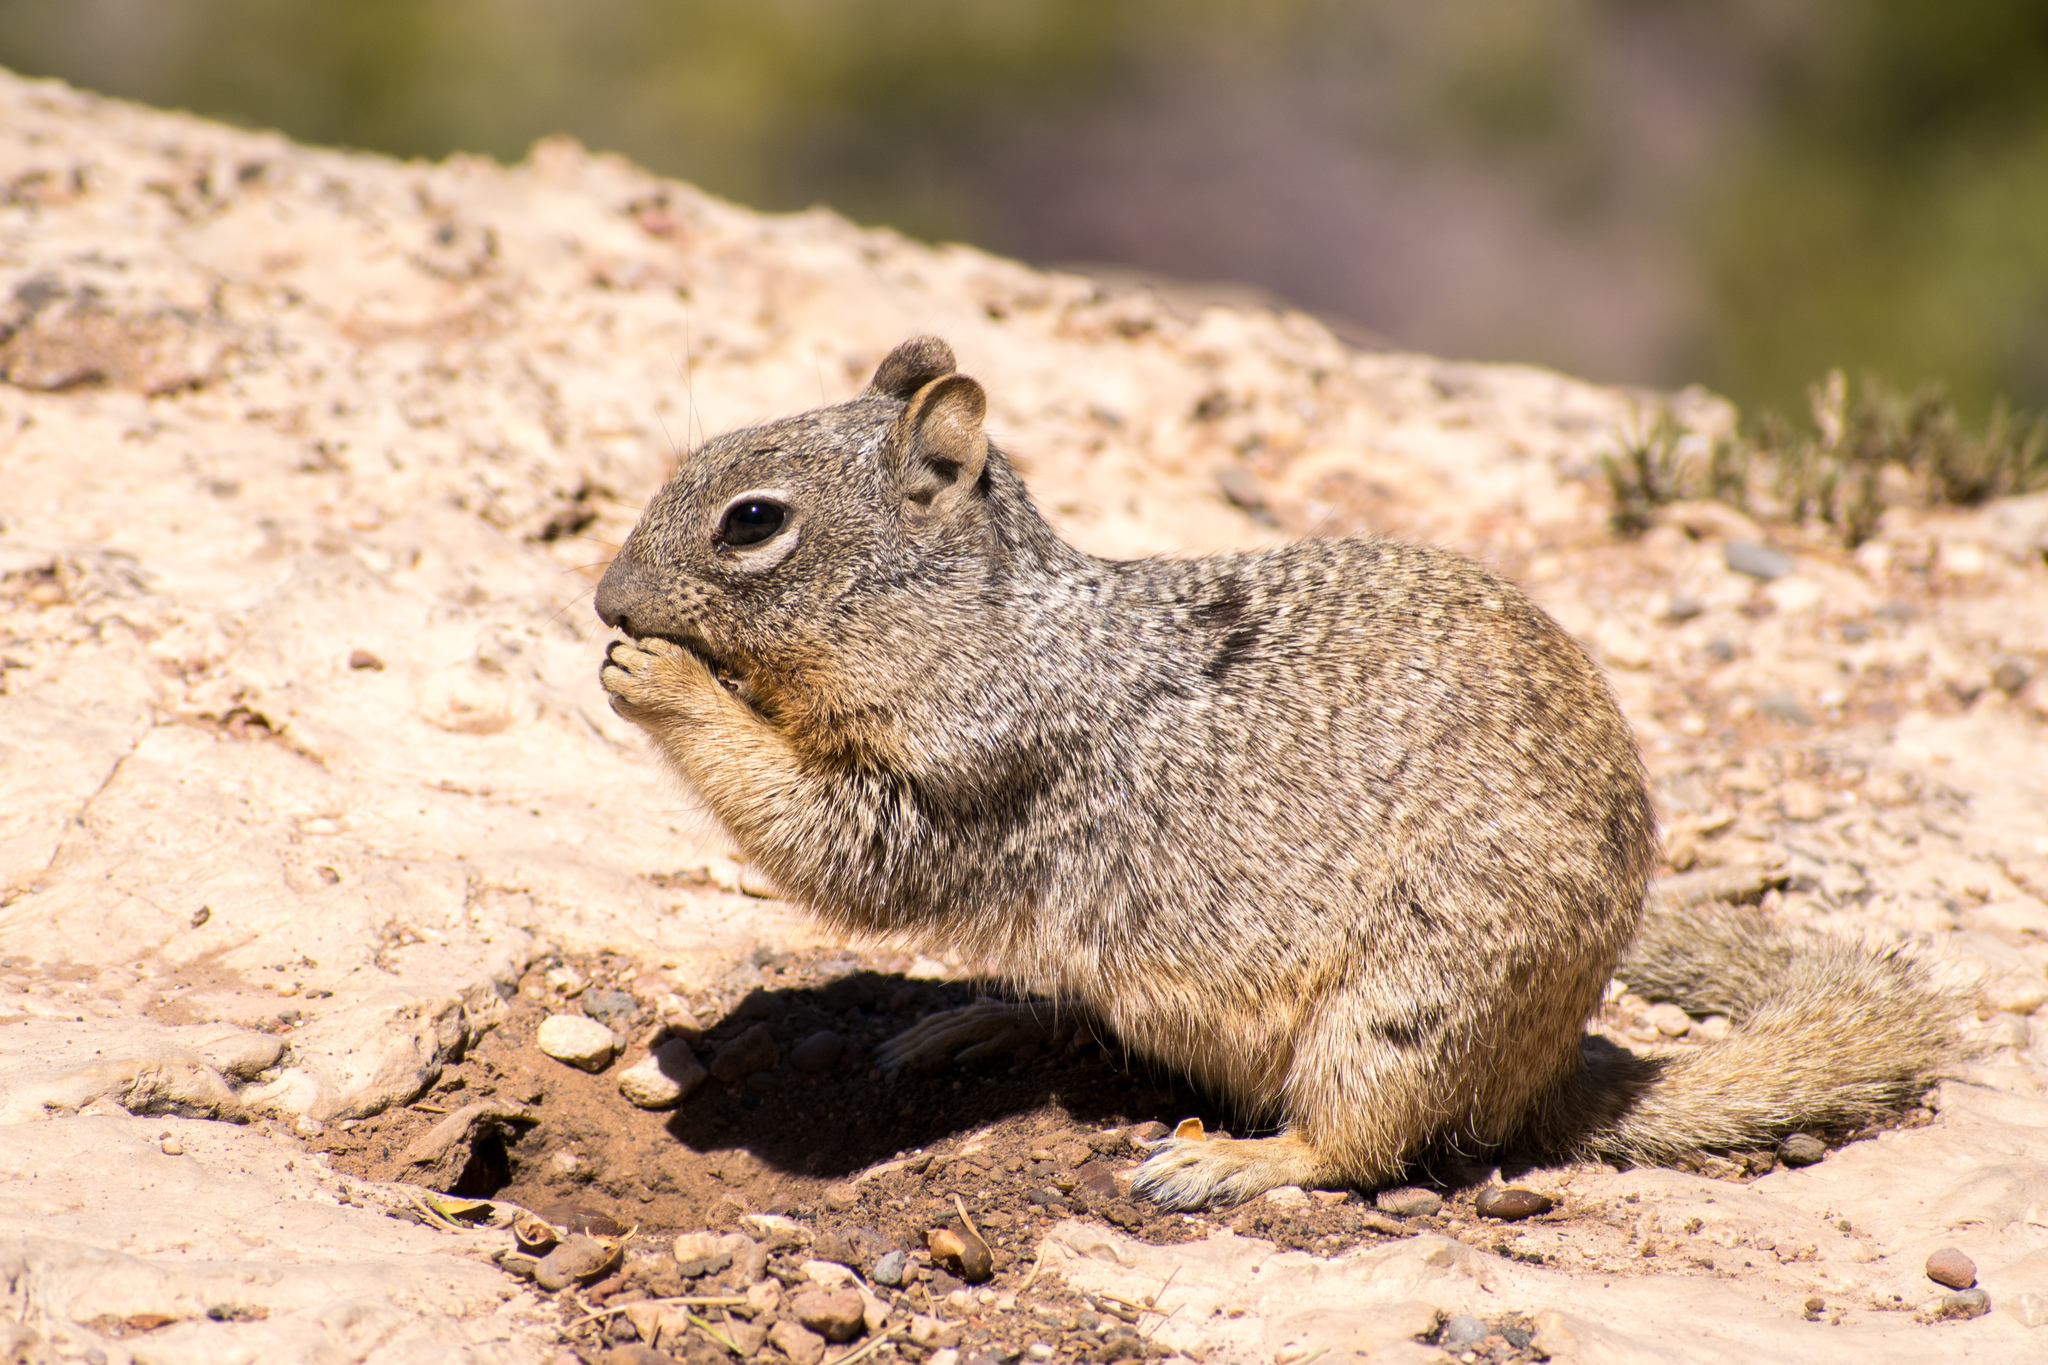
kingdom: Animalia
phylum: Chordata
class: Mammalia
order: Rodentia
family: Sciuridae
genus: Otospermophilus
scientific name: Otospermophilus variegatus
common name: Rock squirrel
